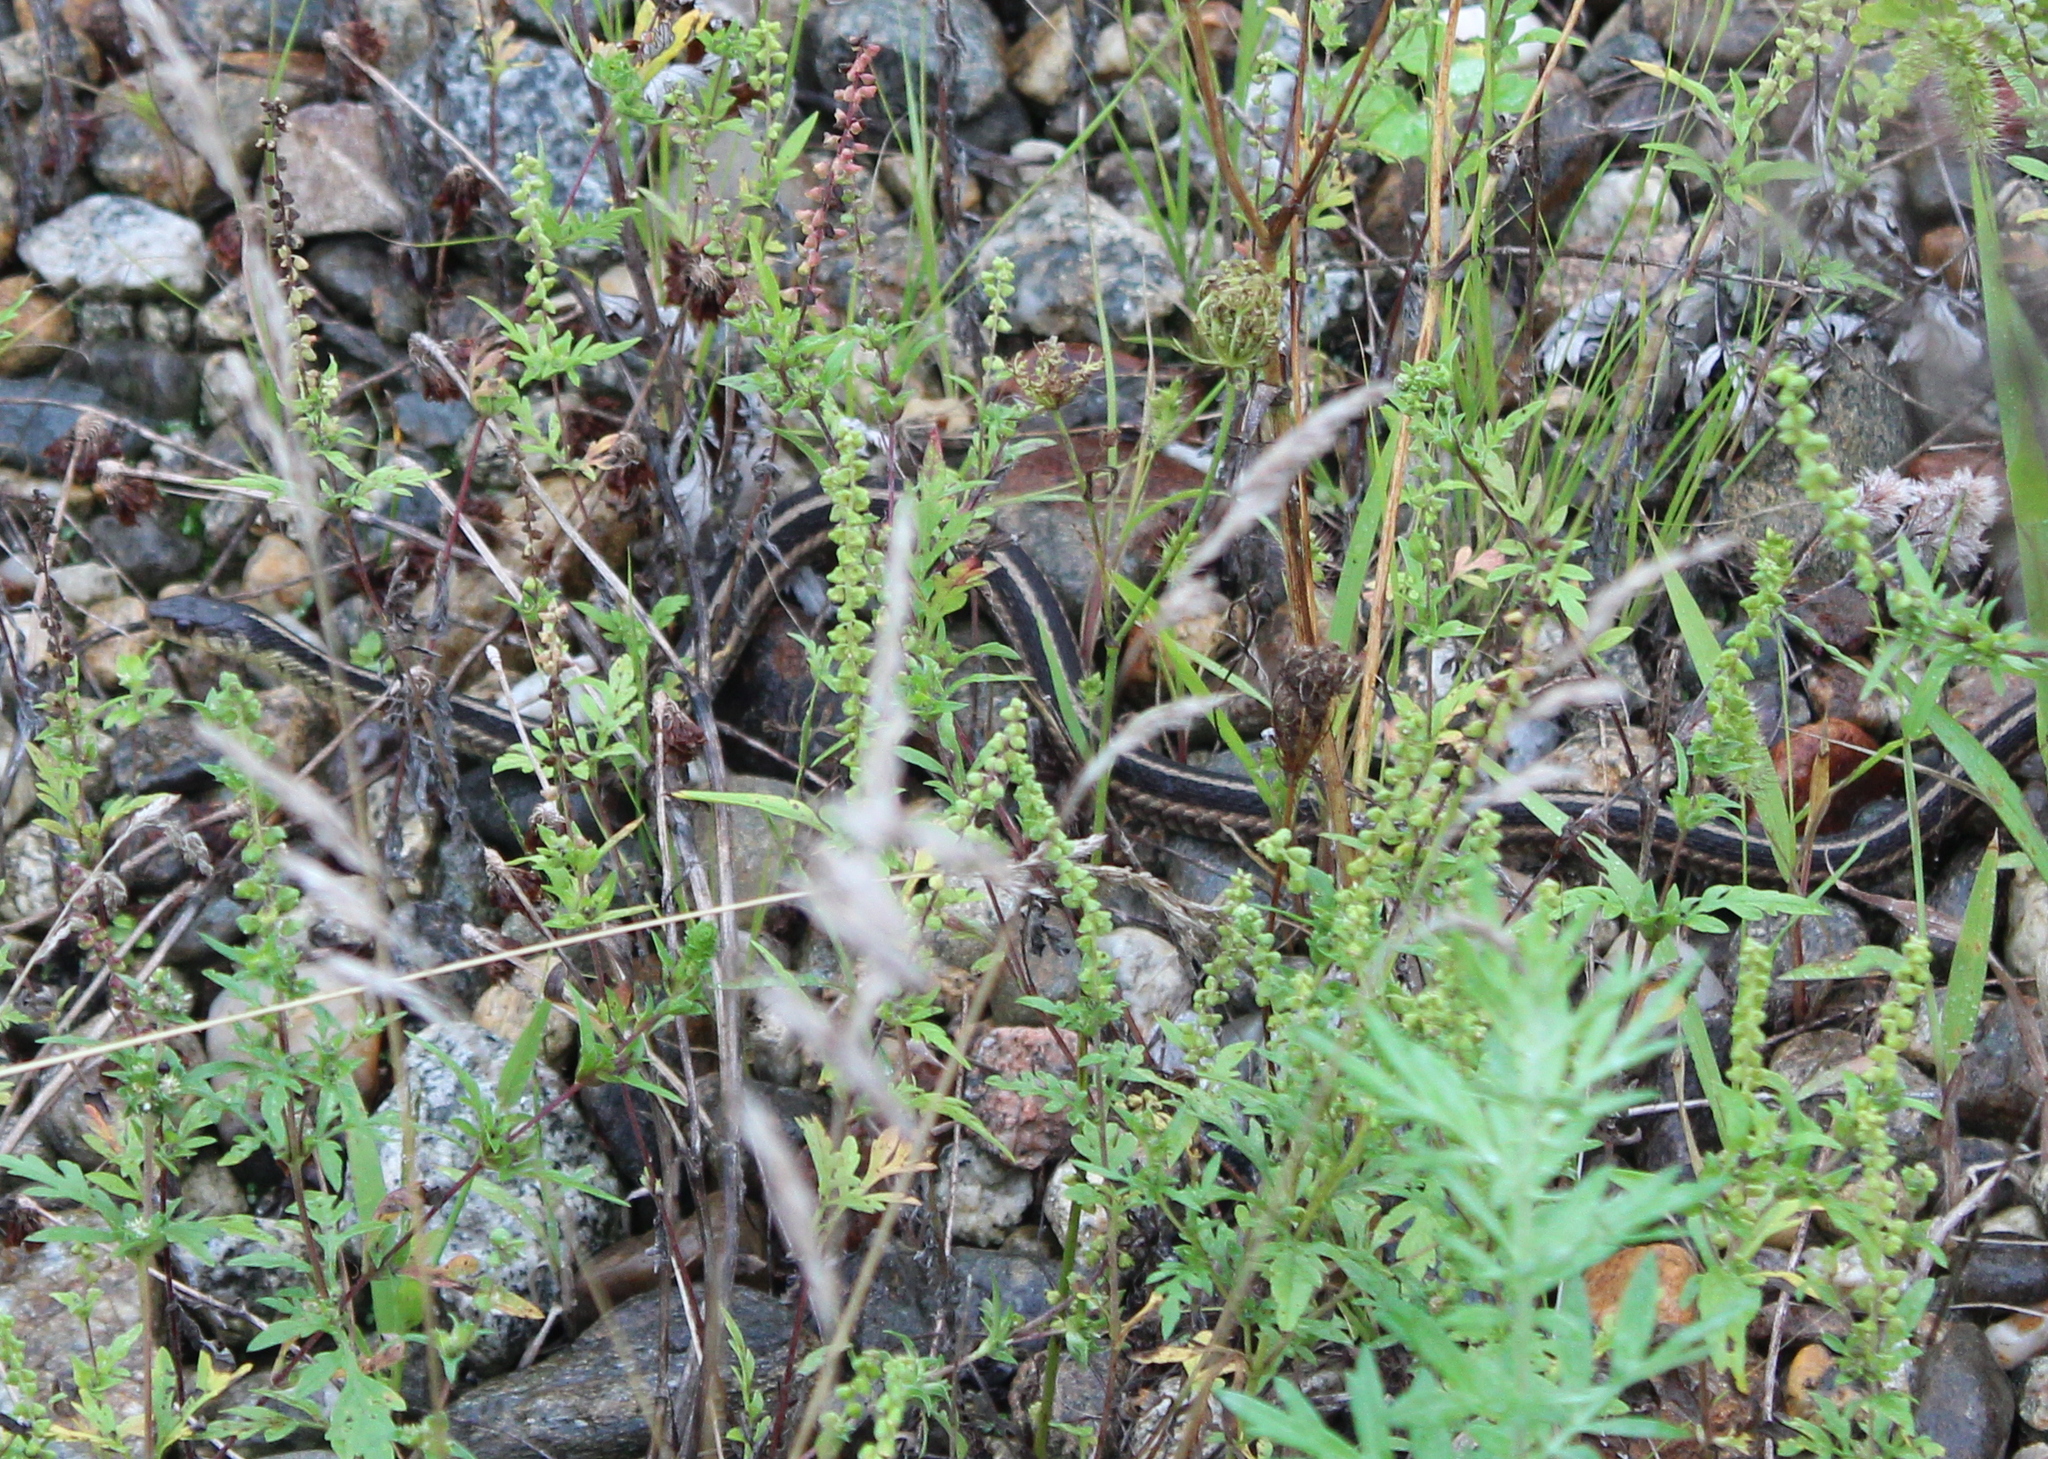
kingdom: Animalia
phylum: Chordata
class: Squamata
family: Colubridae
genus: Thamnophis
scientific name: Thamnophis sirtalis
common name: Common garter snake
